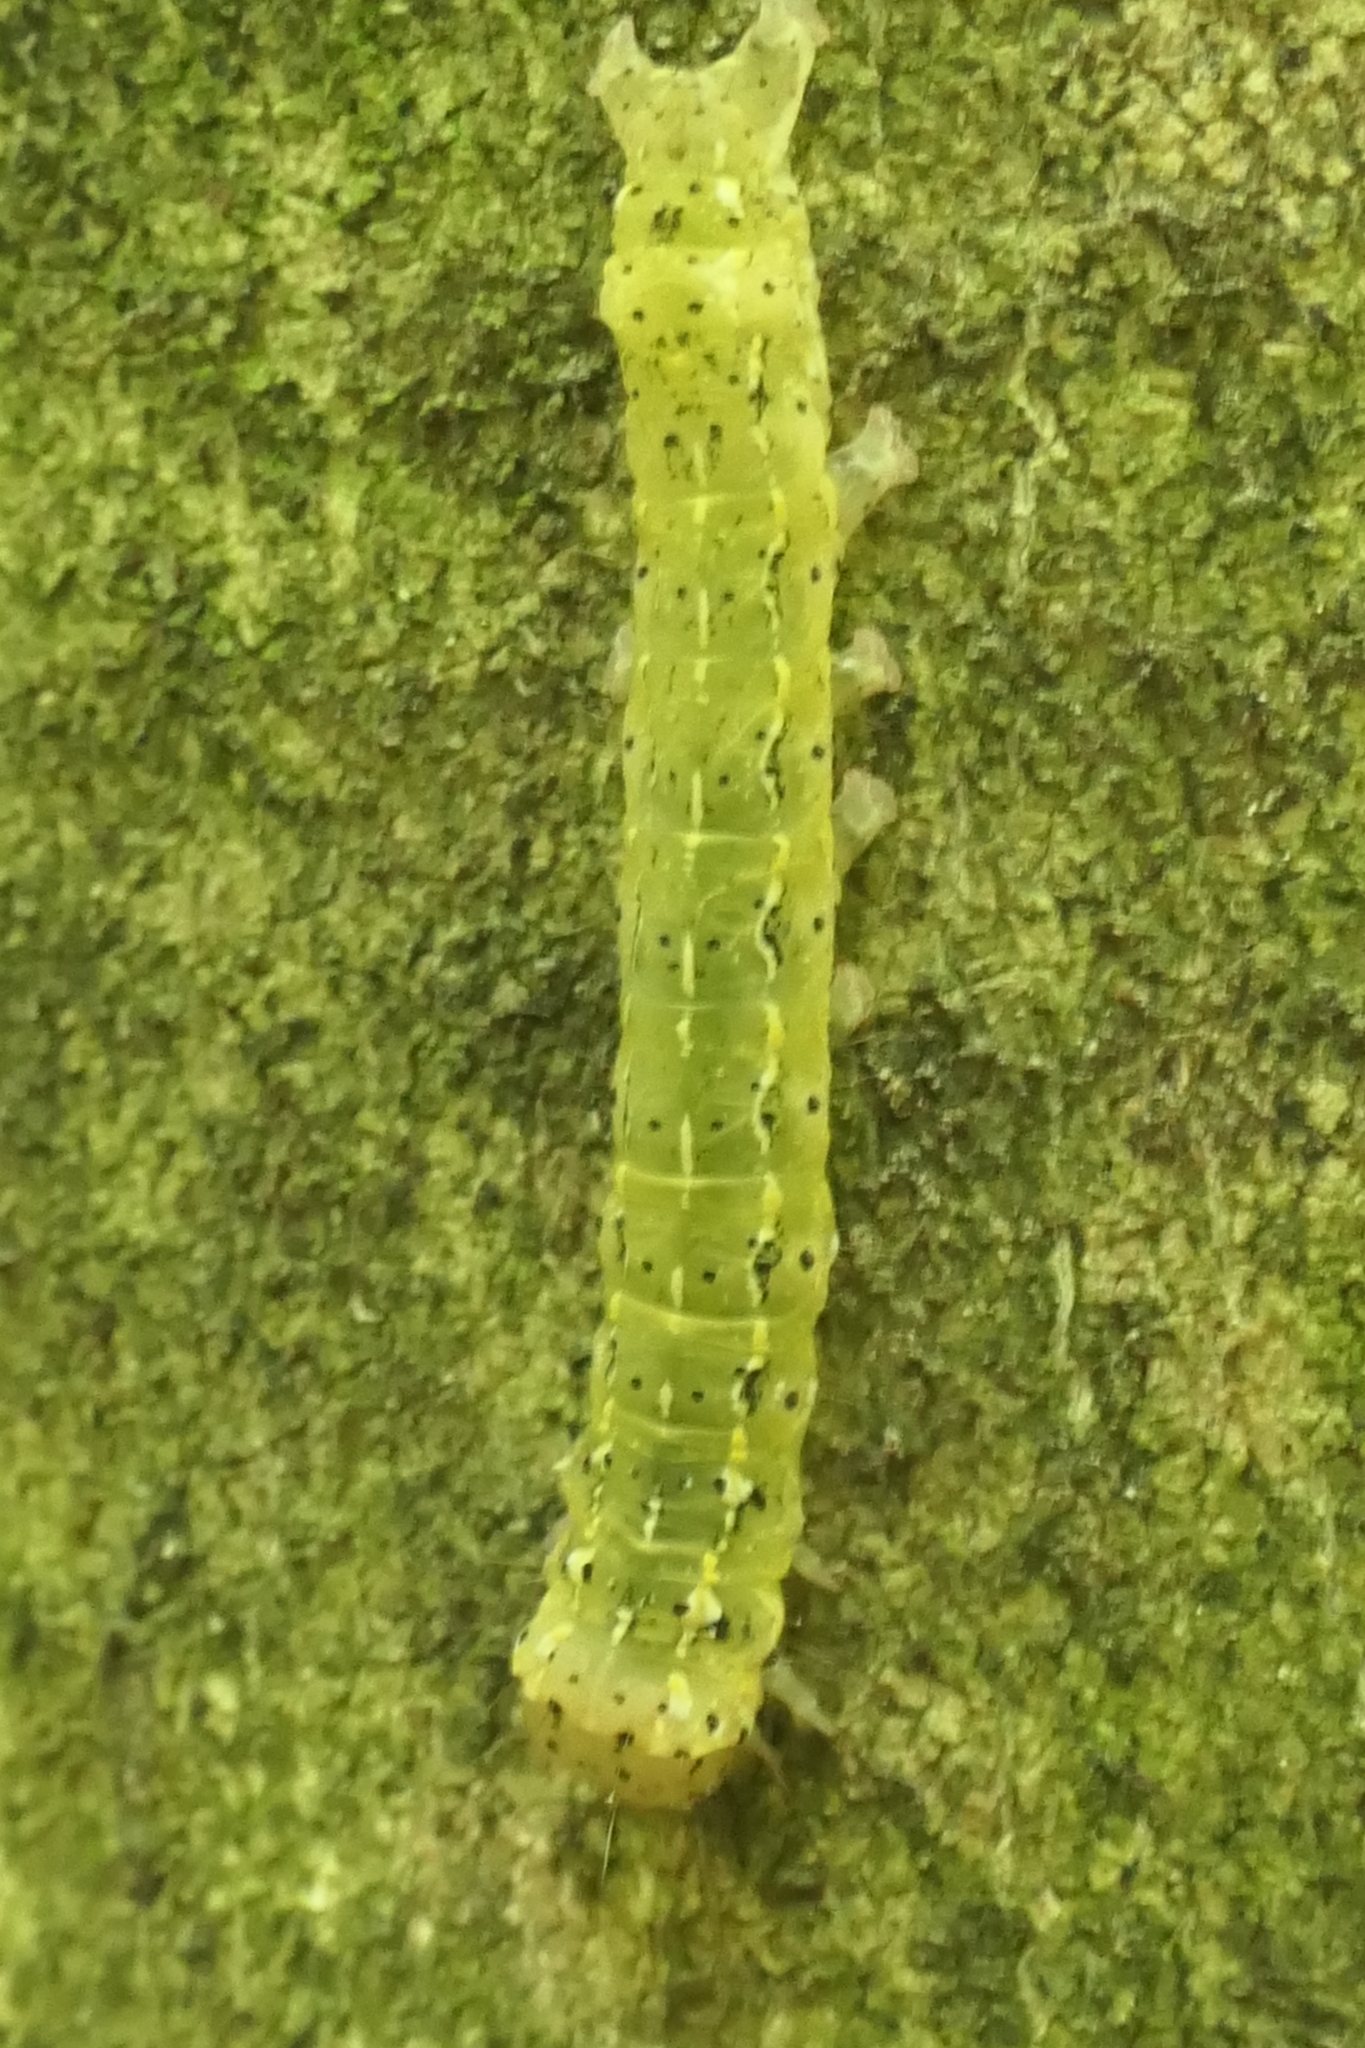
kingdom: Animalia
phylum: Arthropoda
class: Insecta
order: Lepidoptera
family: Noctuidae
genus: Feredayia
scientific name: Feredayia grammosa
